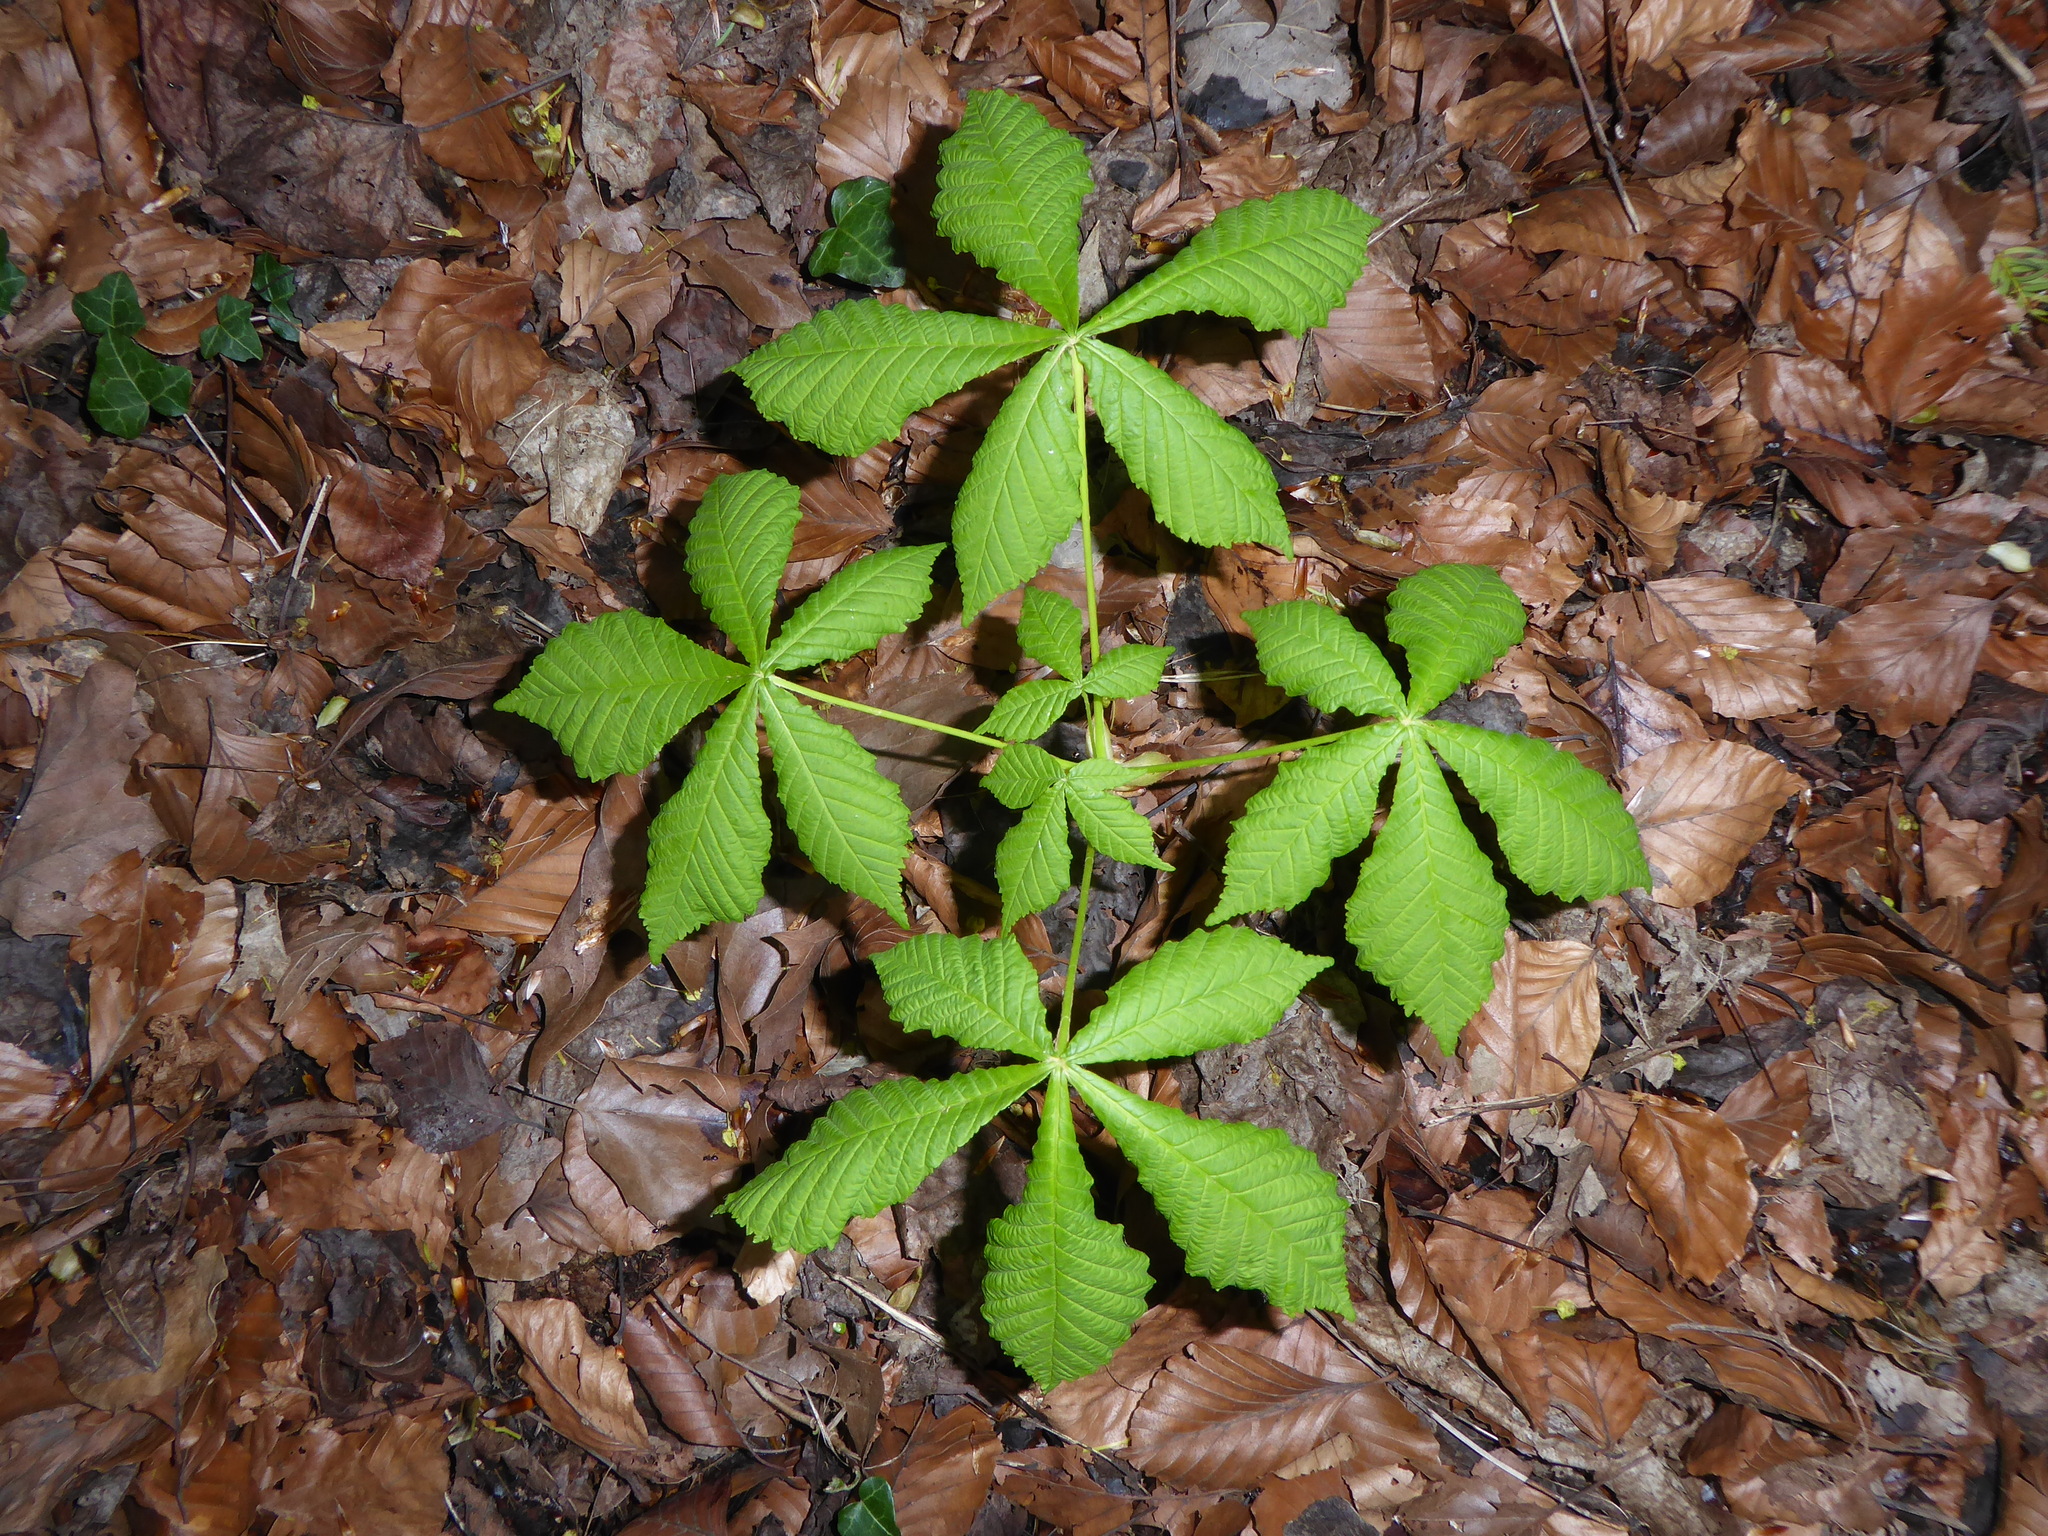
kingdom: Plantae
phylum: Tracheophyta
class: Magnoliopsida
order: Sapindales
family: Sapindaceae
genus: Aesculus
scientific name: Aesculus hippocastanum
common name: Horse-chestnut
